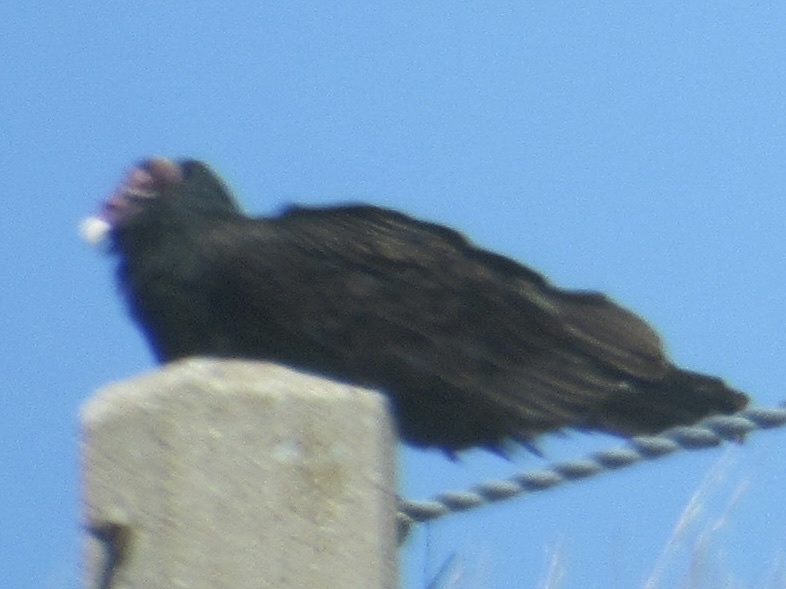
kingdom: Animalia
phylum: Chordata
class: Aves
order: Accipitriformes
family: Cathartidae
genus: Cathartes
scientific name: Cathartes aura
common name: Turkey vulture
